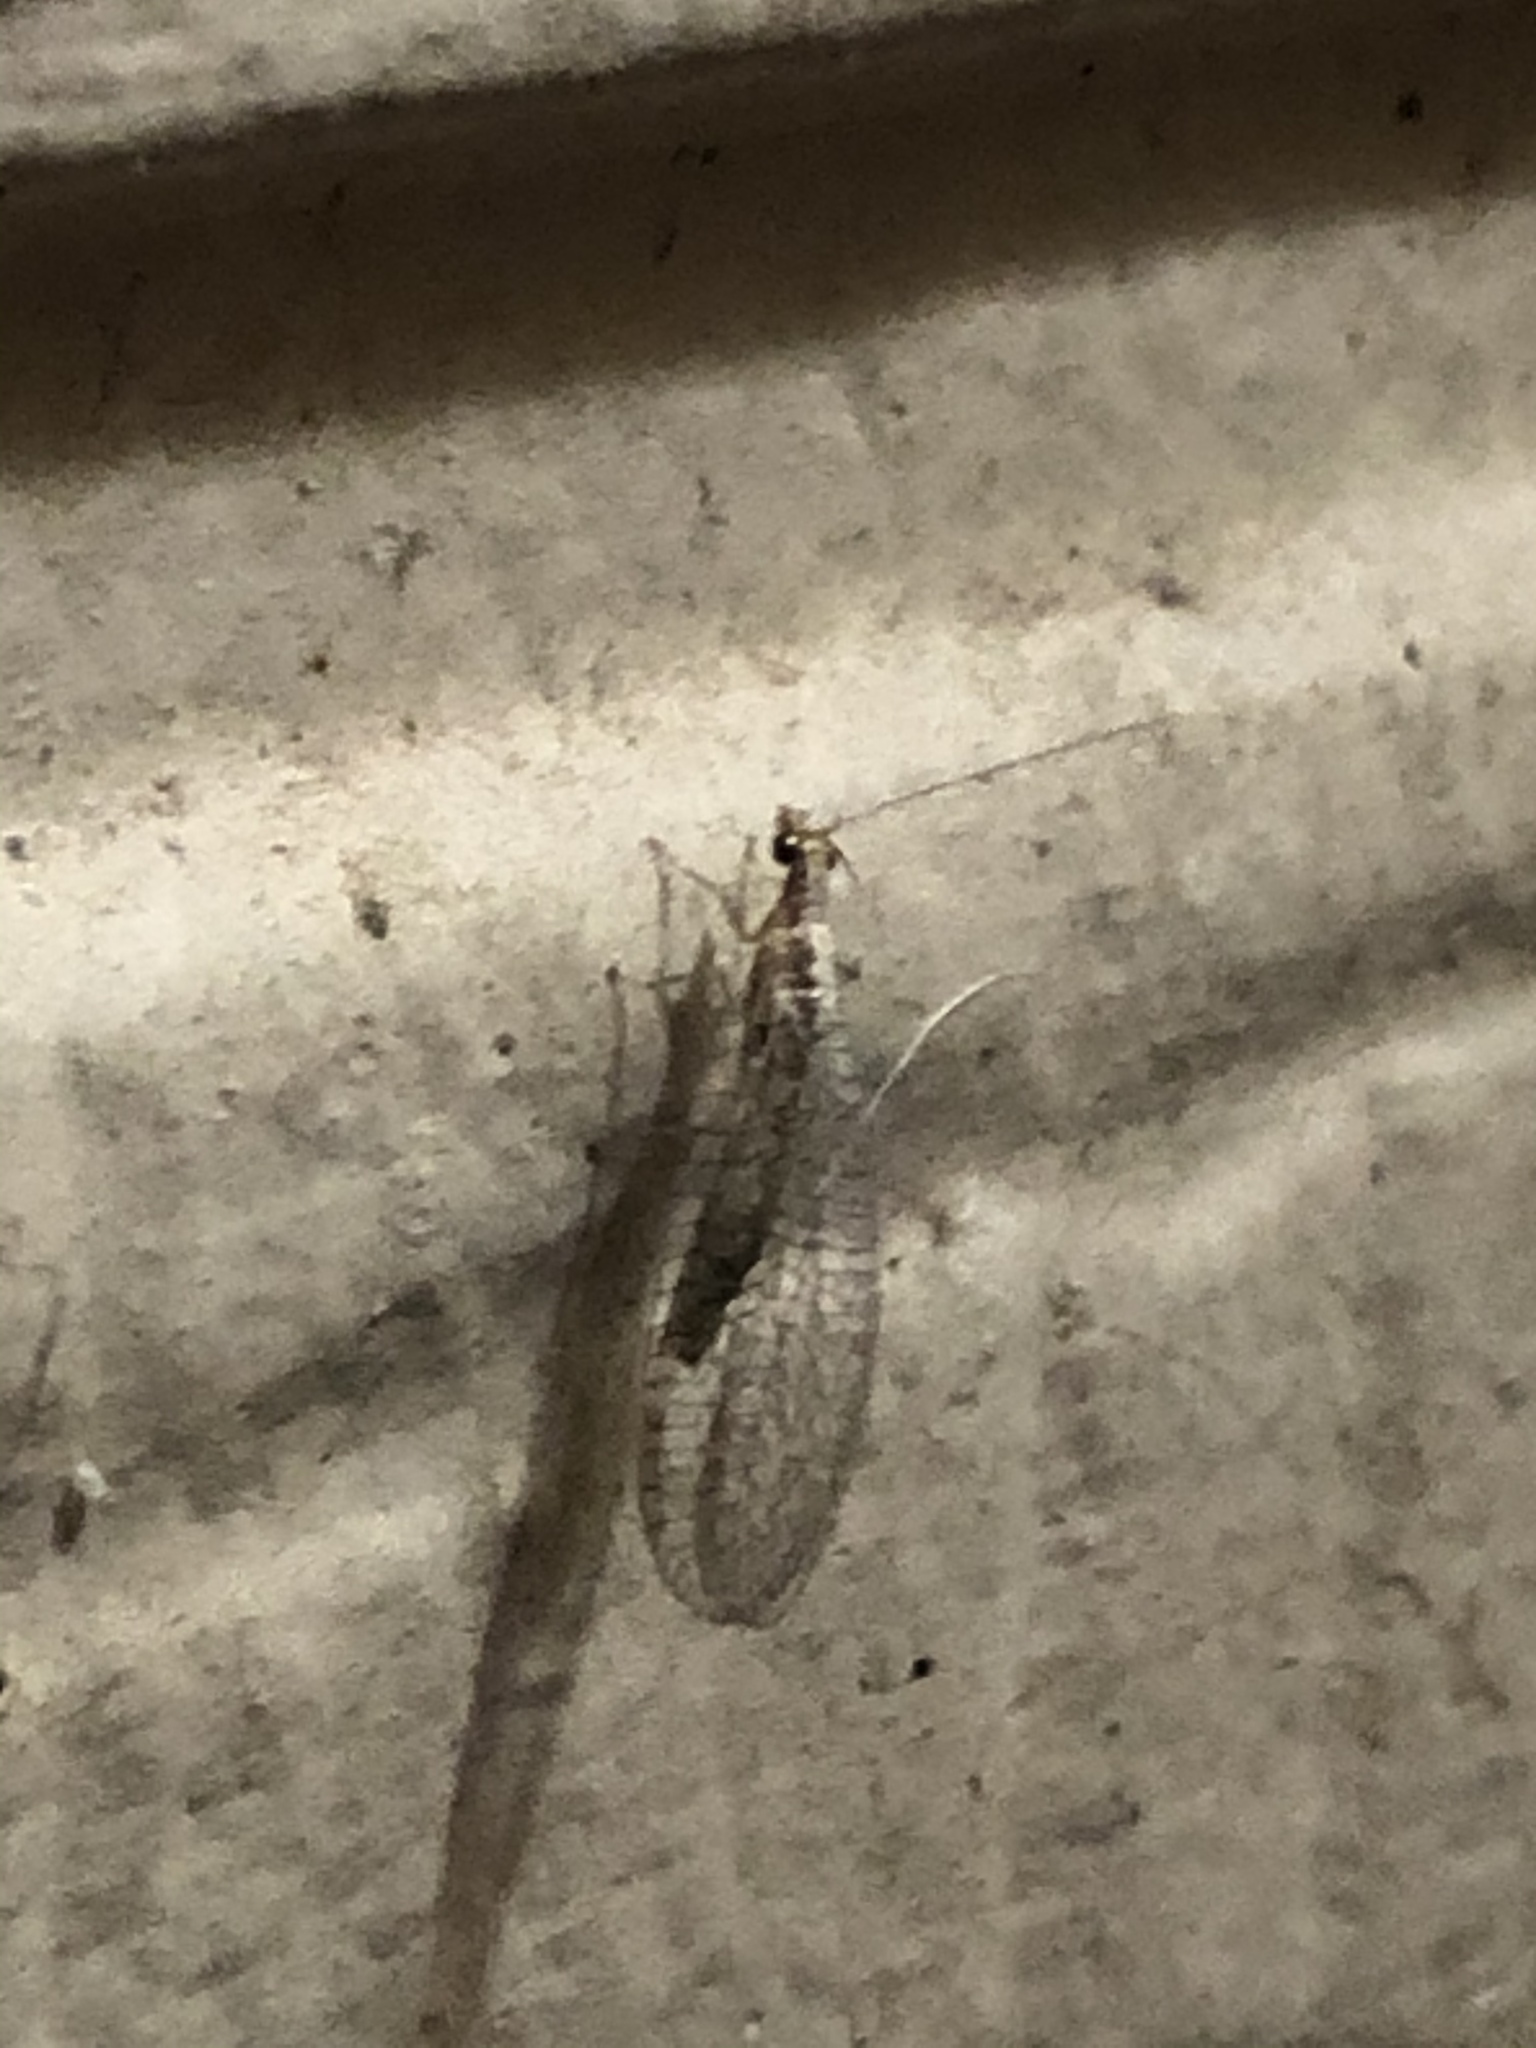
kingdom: Animalia
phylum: Arthropoda
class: Insecta
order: Neuroptera
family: Chrysopidae
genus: Eremochrysa
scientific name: Eremochrysa
